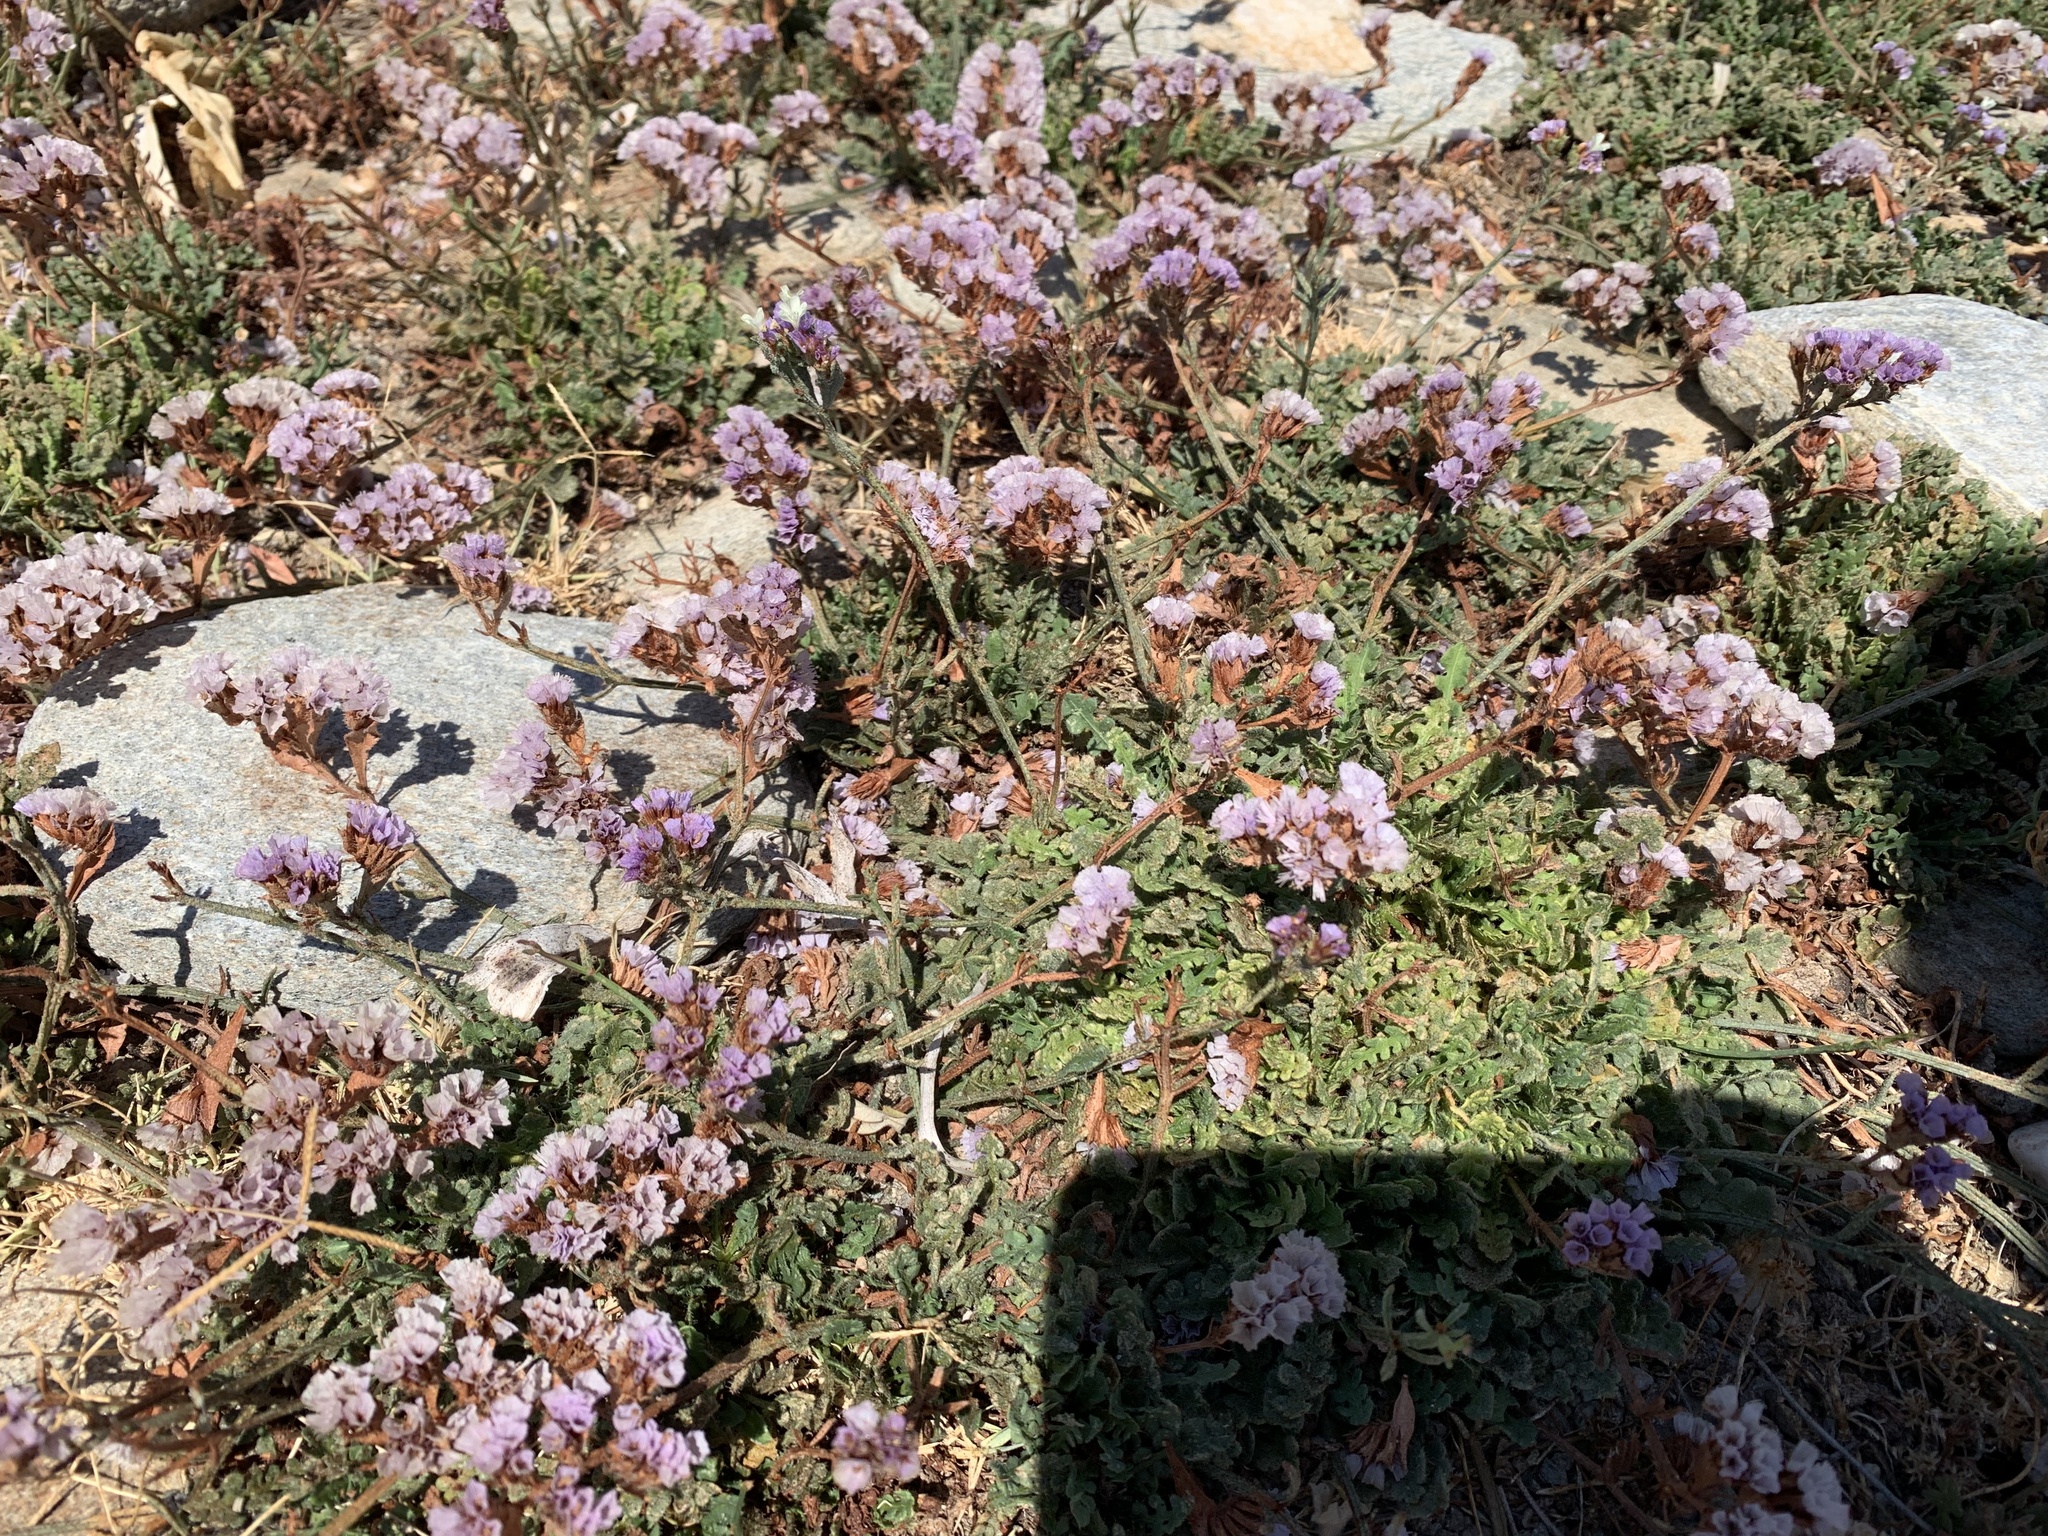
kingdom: Plantae
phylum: Tracheophyta
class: Magnoliopsida
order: Caryophyllales
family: Plumbaginaceae
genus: Limonium
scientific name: Limonium sinuatum
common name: Statice
